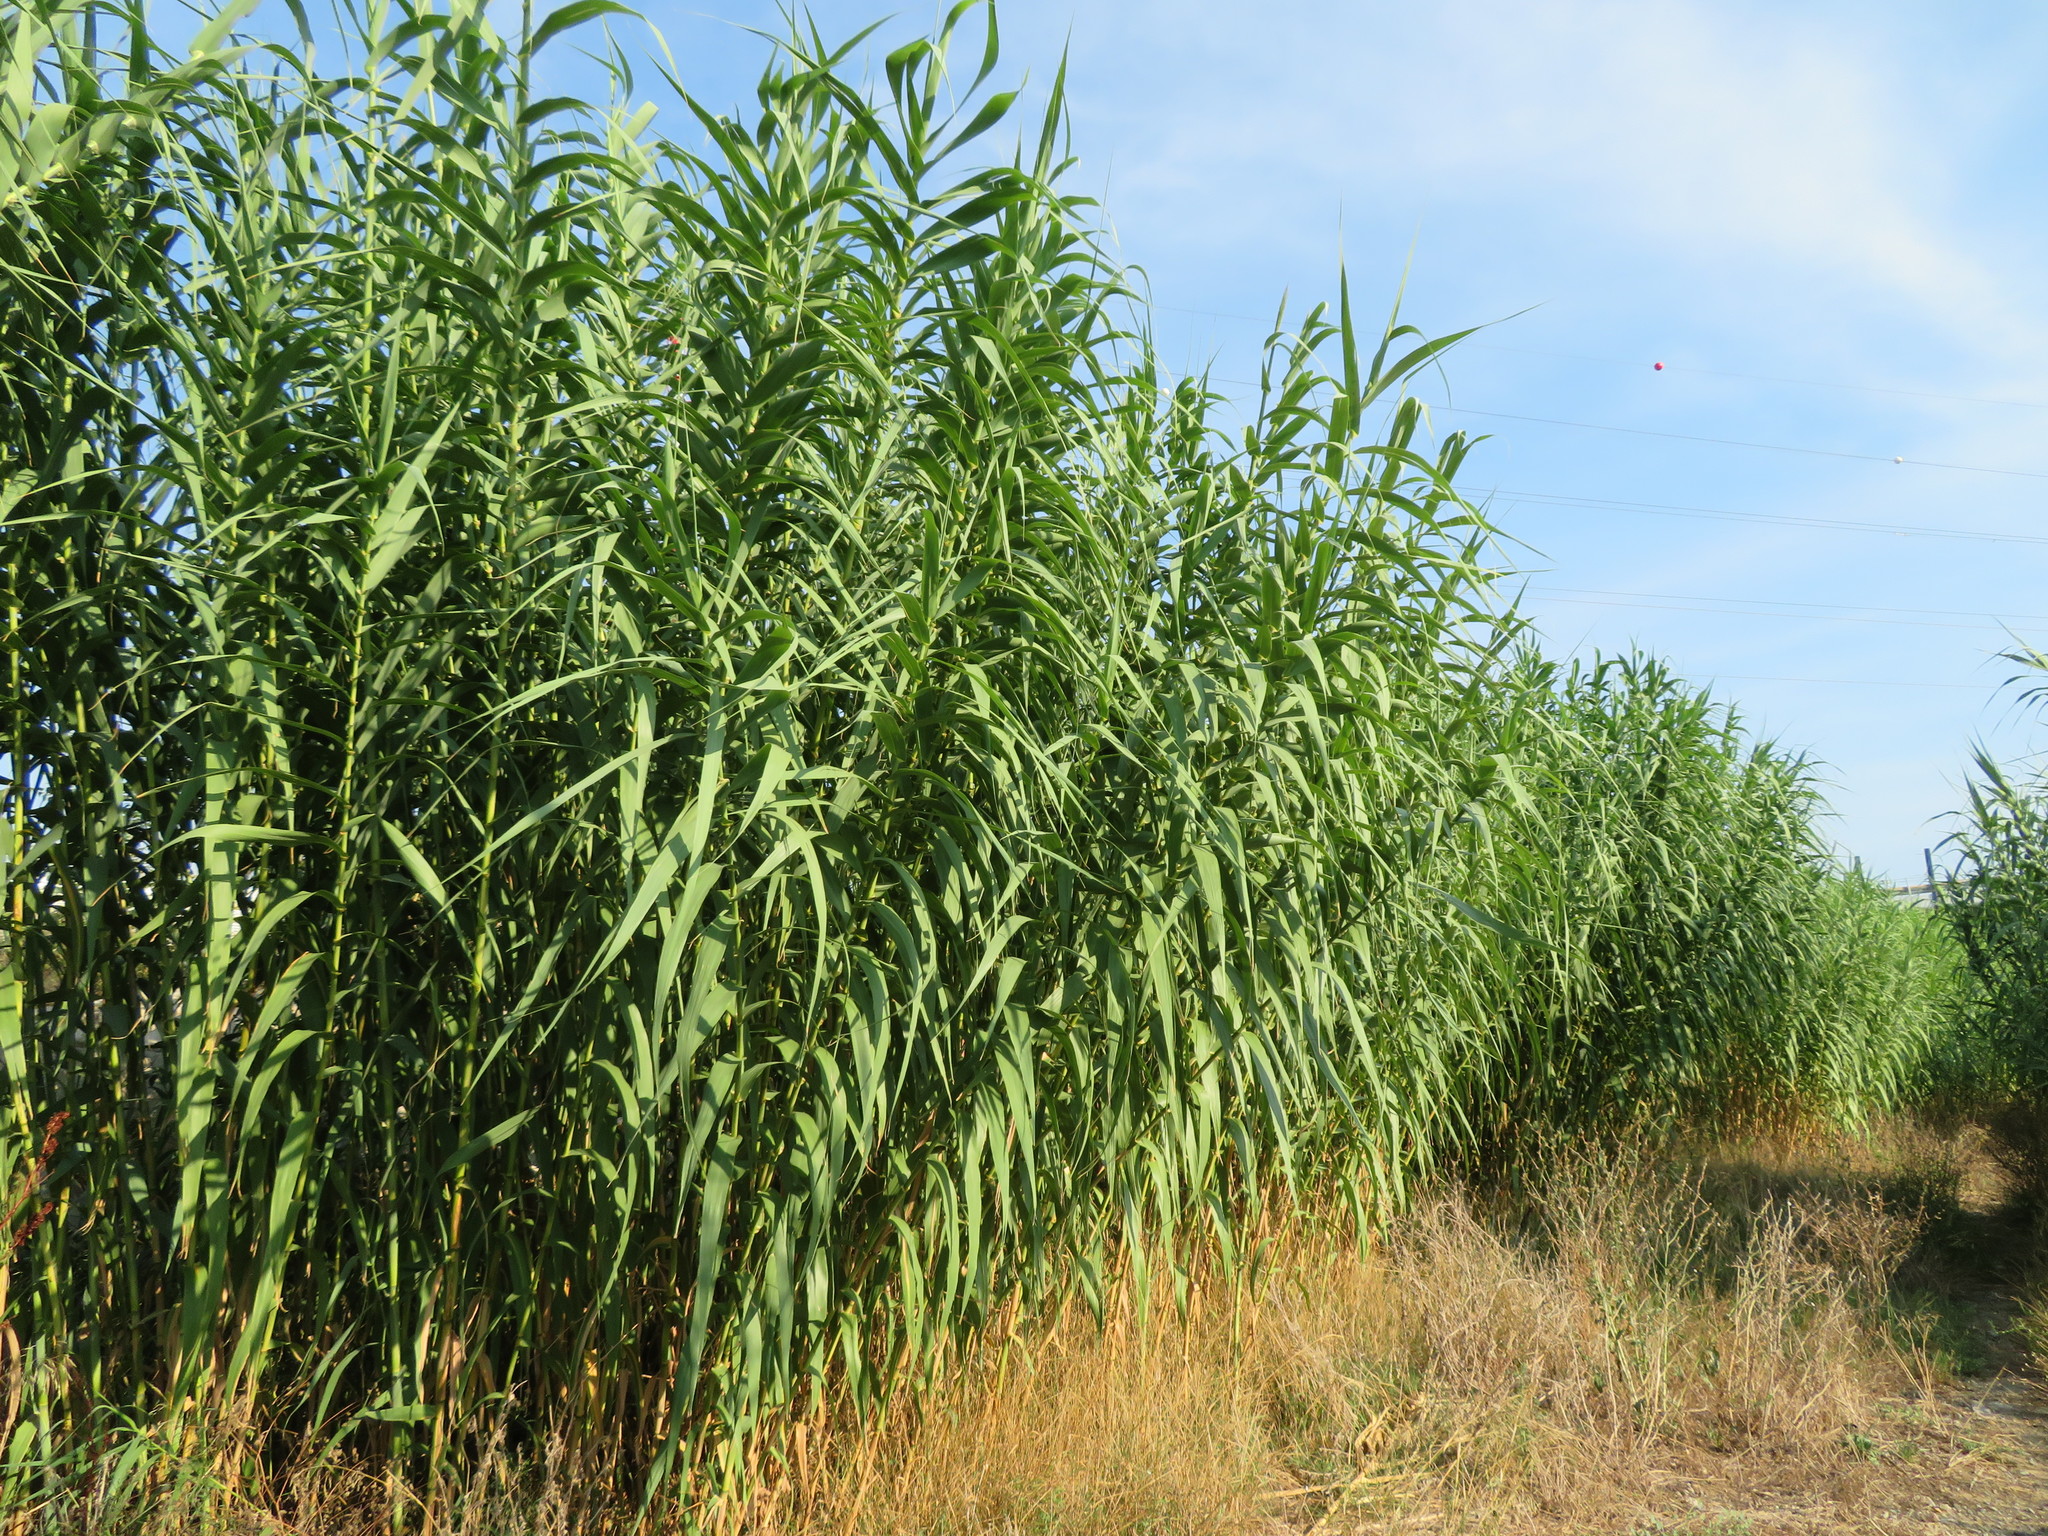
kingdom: Plantae
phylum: Tracheophyta
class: Liliopsida
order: Poales
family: Poaceae
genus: Arundo
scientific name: Arundo donax
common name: Giant reed
